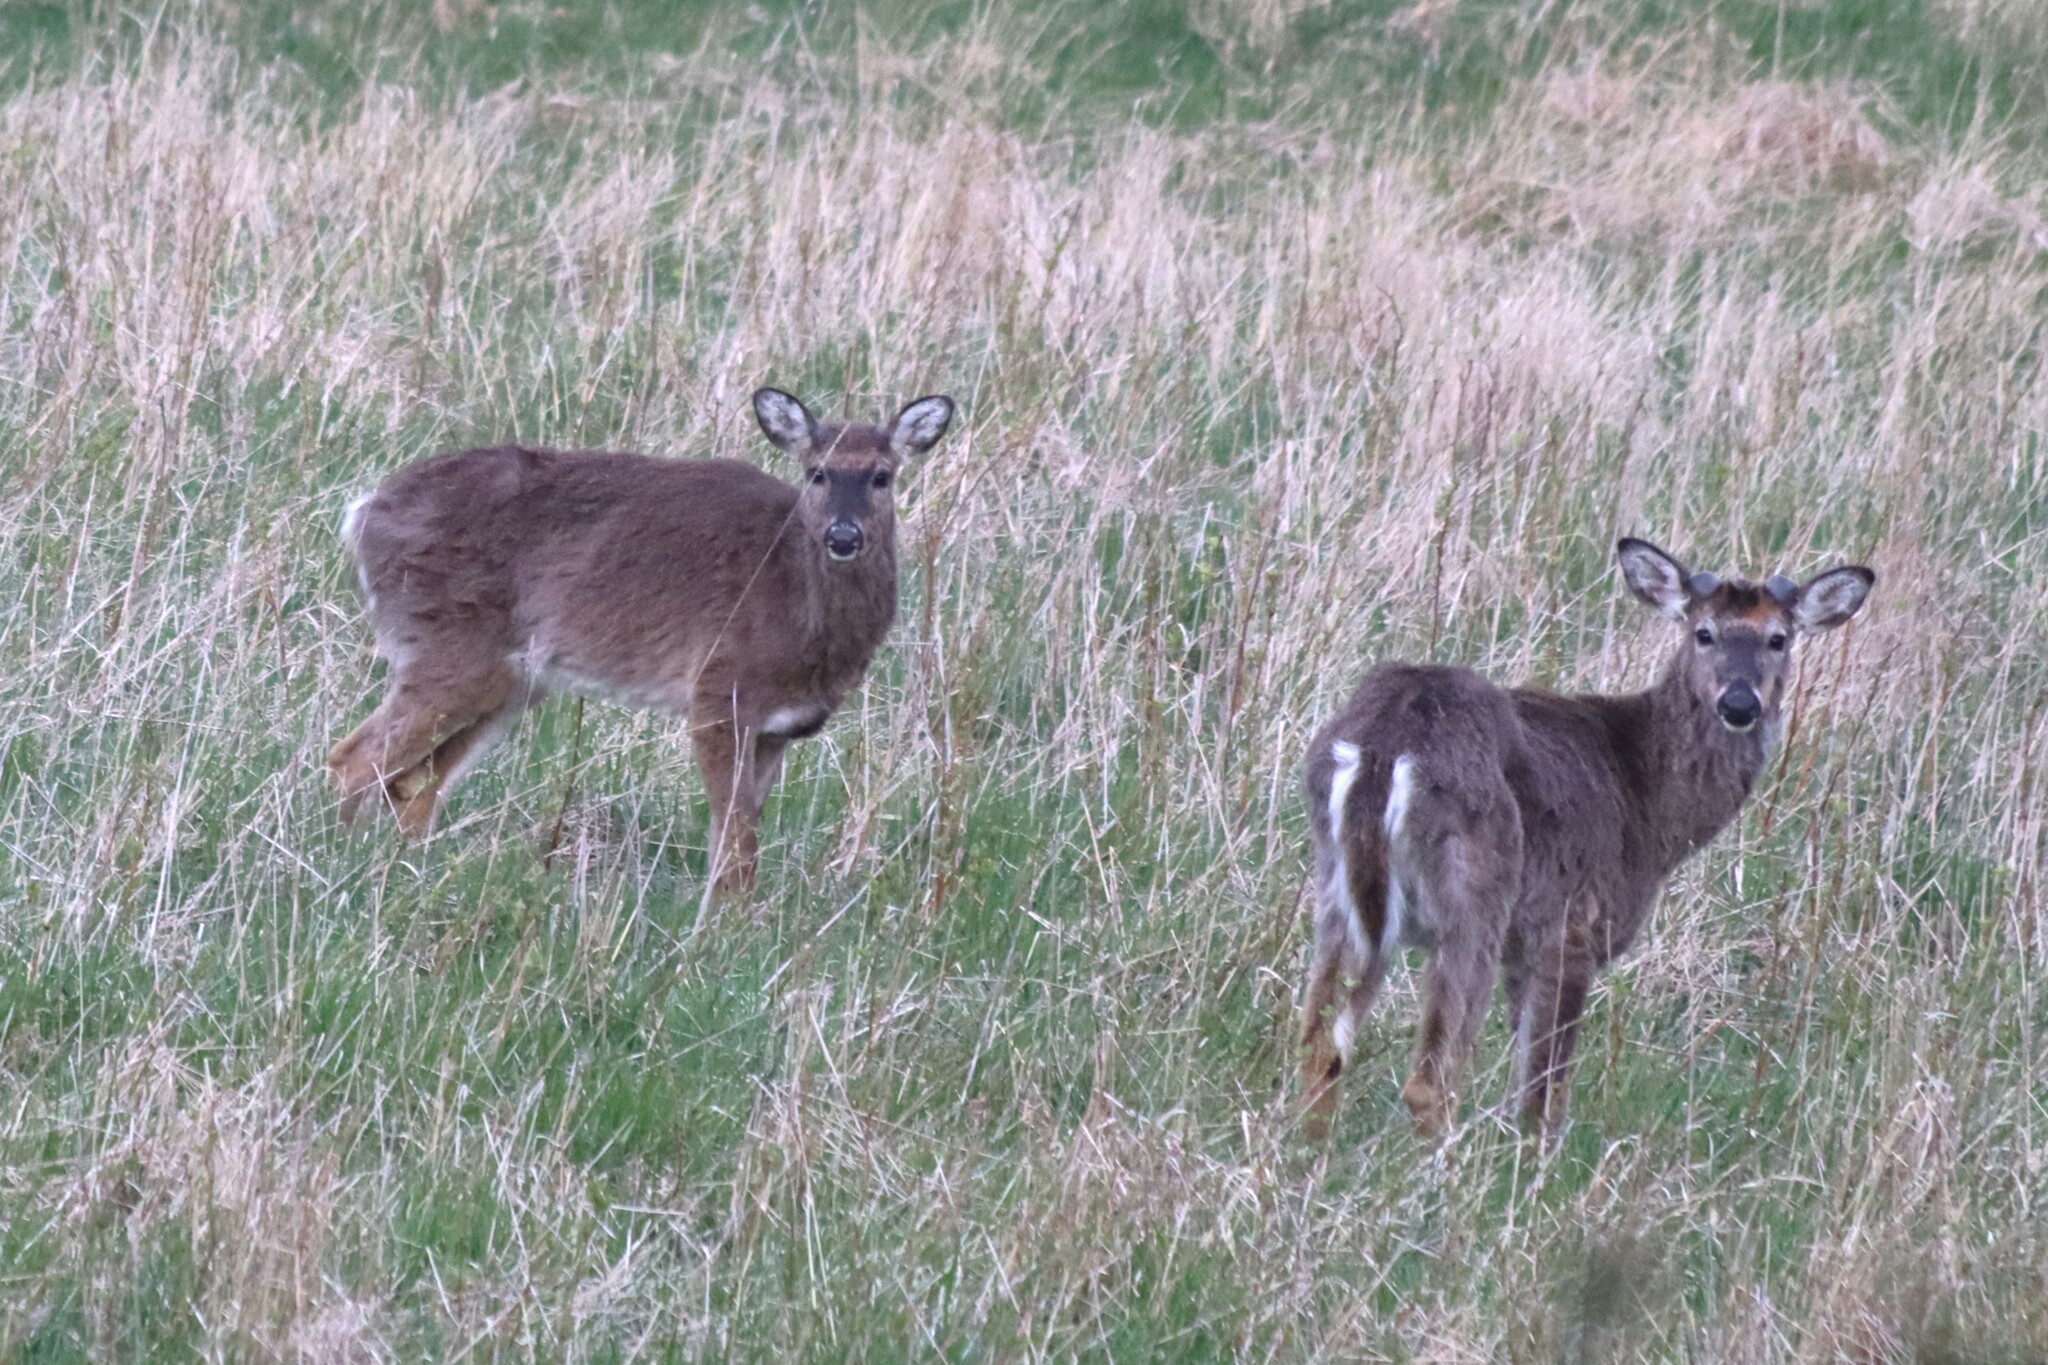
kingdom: Animalia
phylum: Chordata
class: Mammalia
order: Artiodactyla
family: Cervidae
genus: Odocoileus
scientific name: Odocoileus virginianus
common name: White-tailed deer
